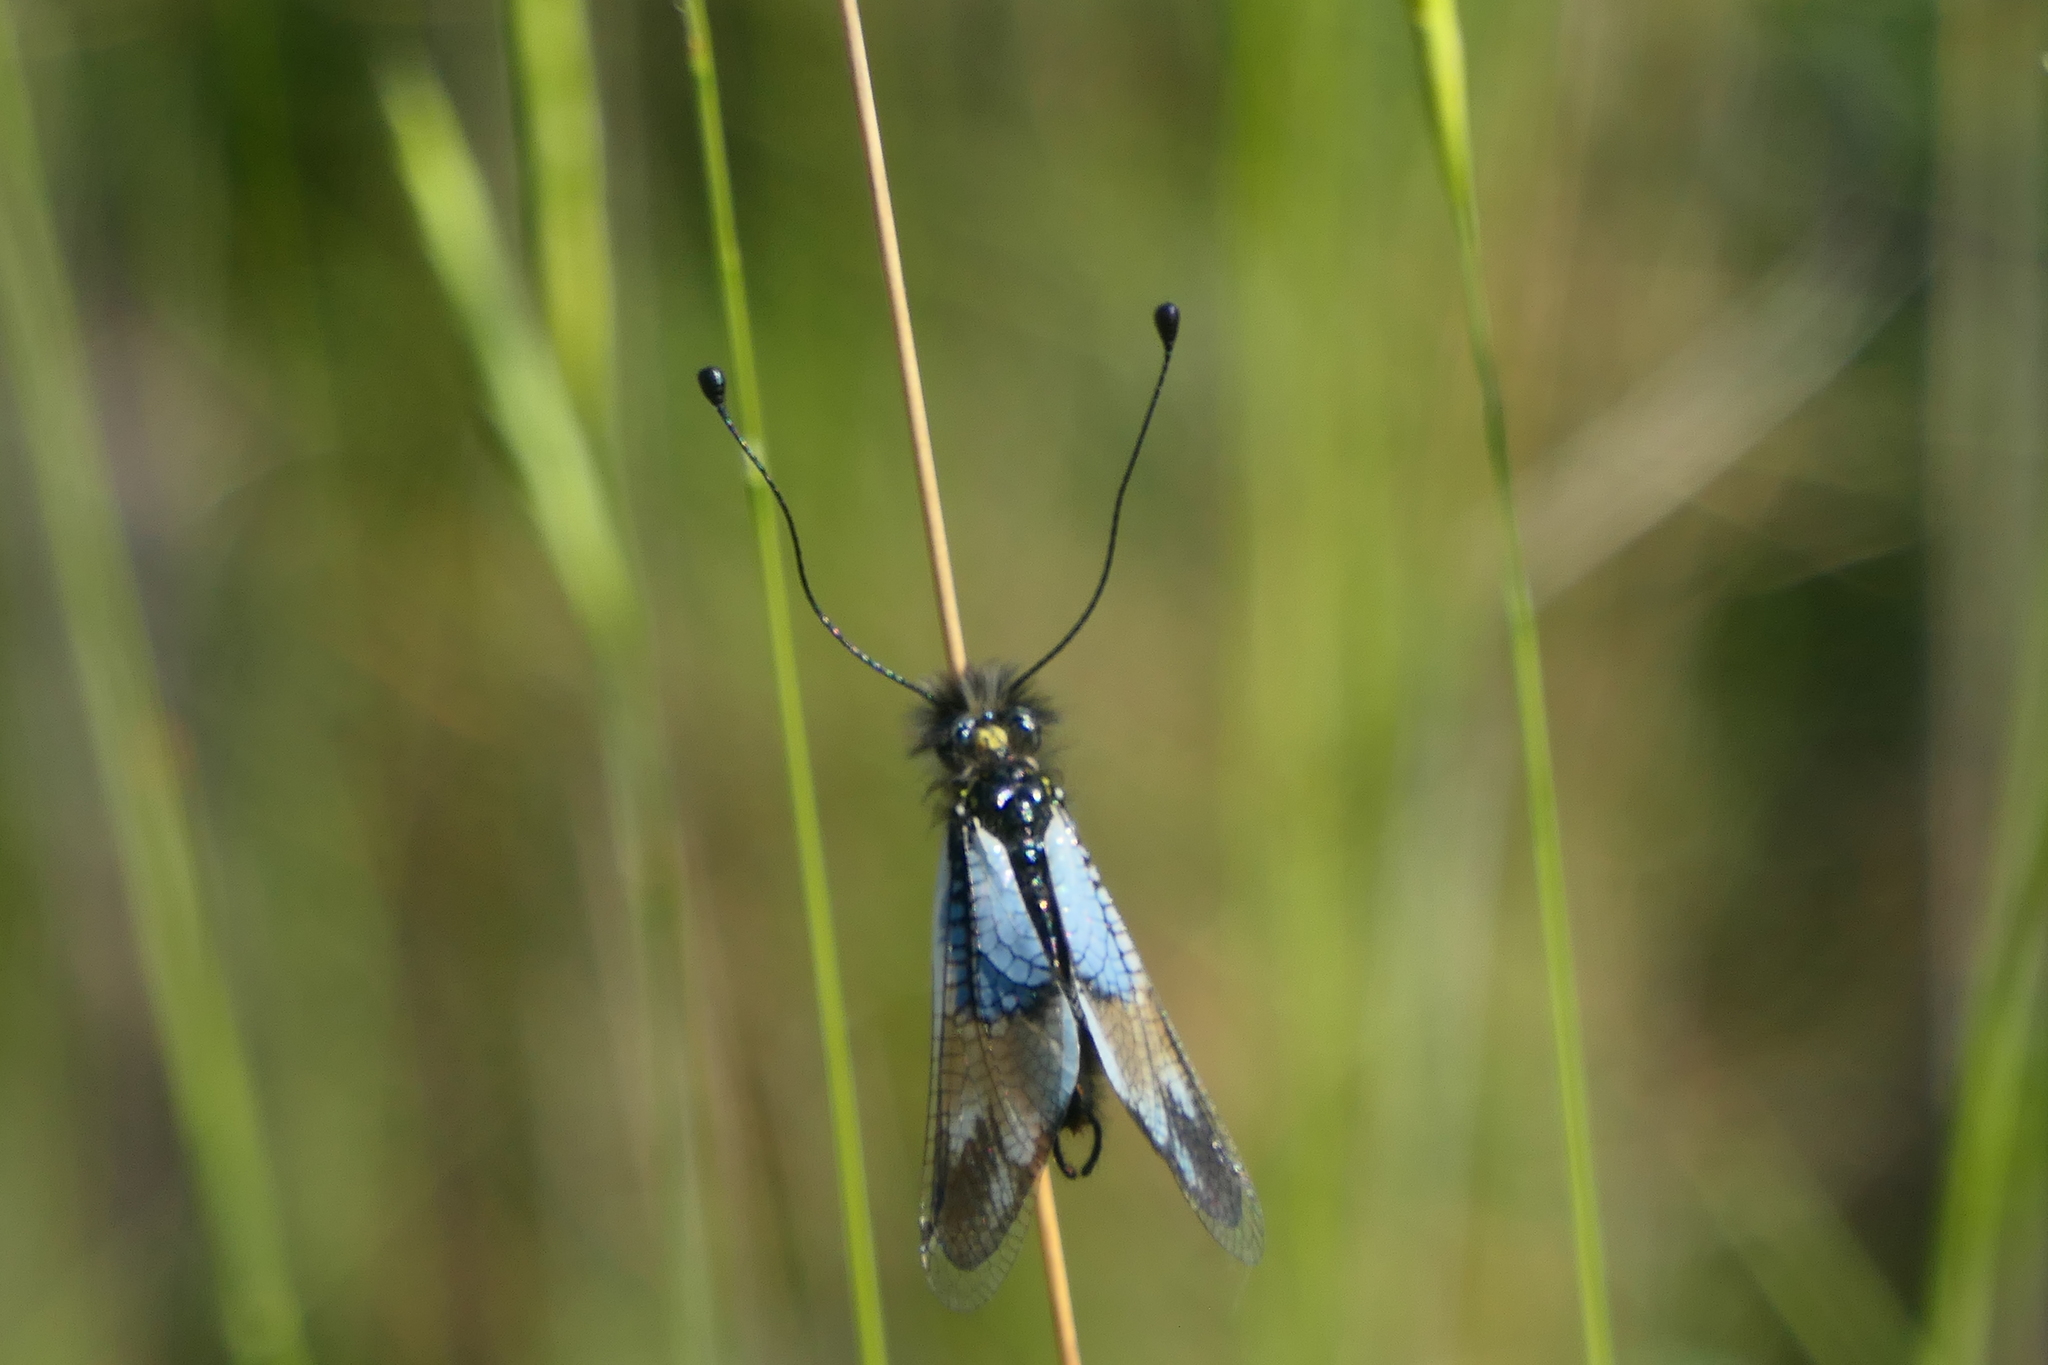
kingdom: Animalia
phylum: Arthropoda
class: Insecta
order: Neuroptera
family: Ascalaphidae
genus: Libelloides
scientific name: Libelloides lacteus
